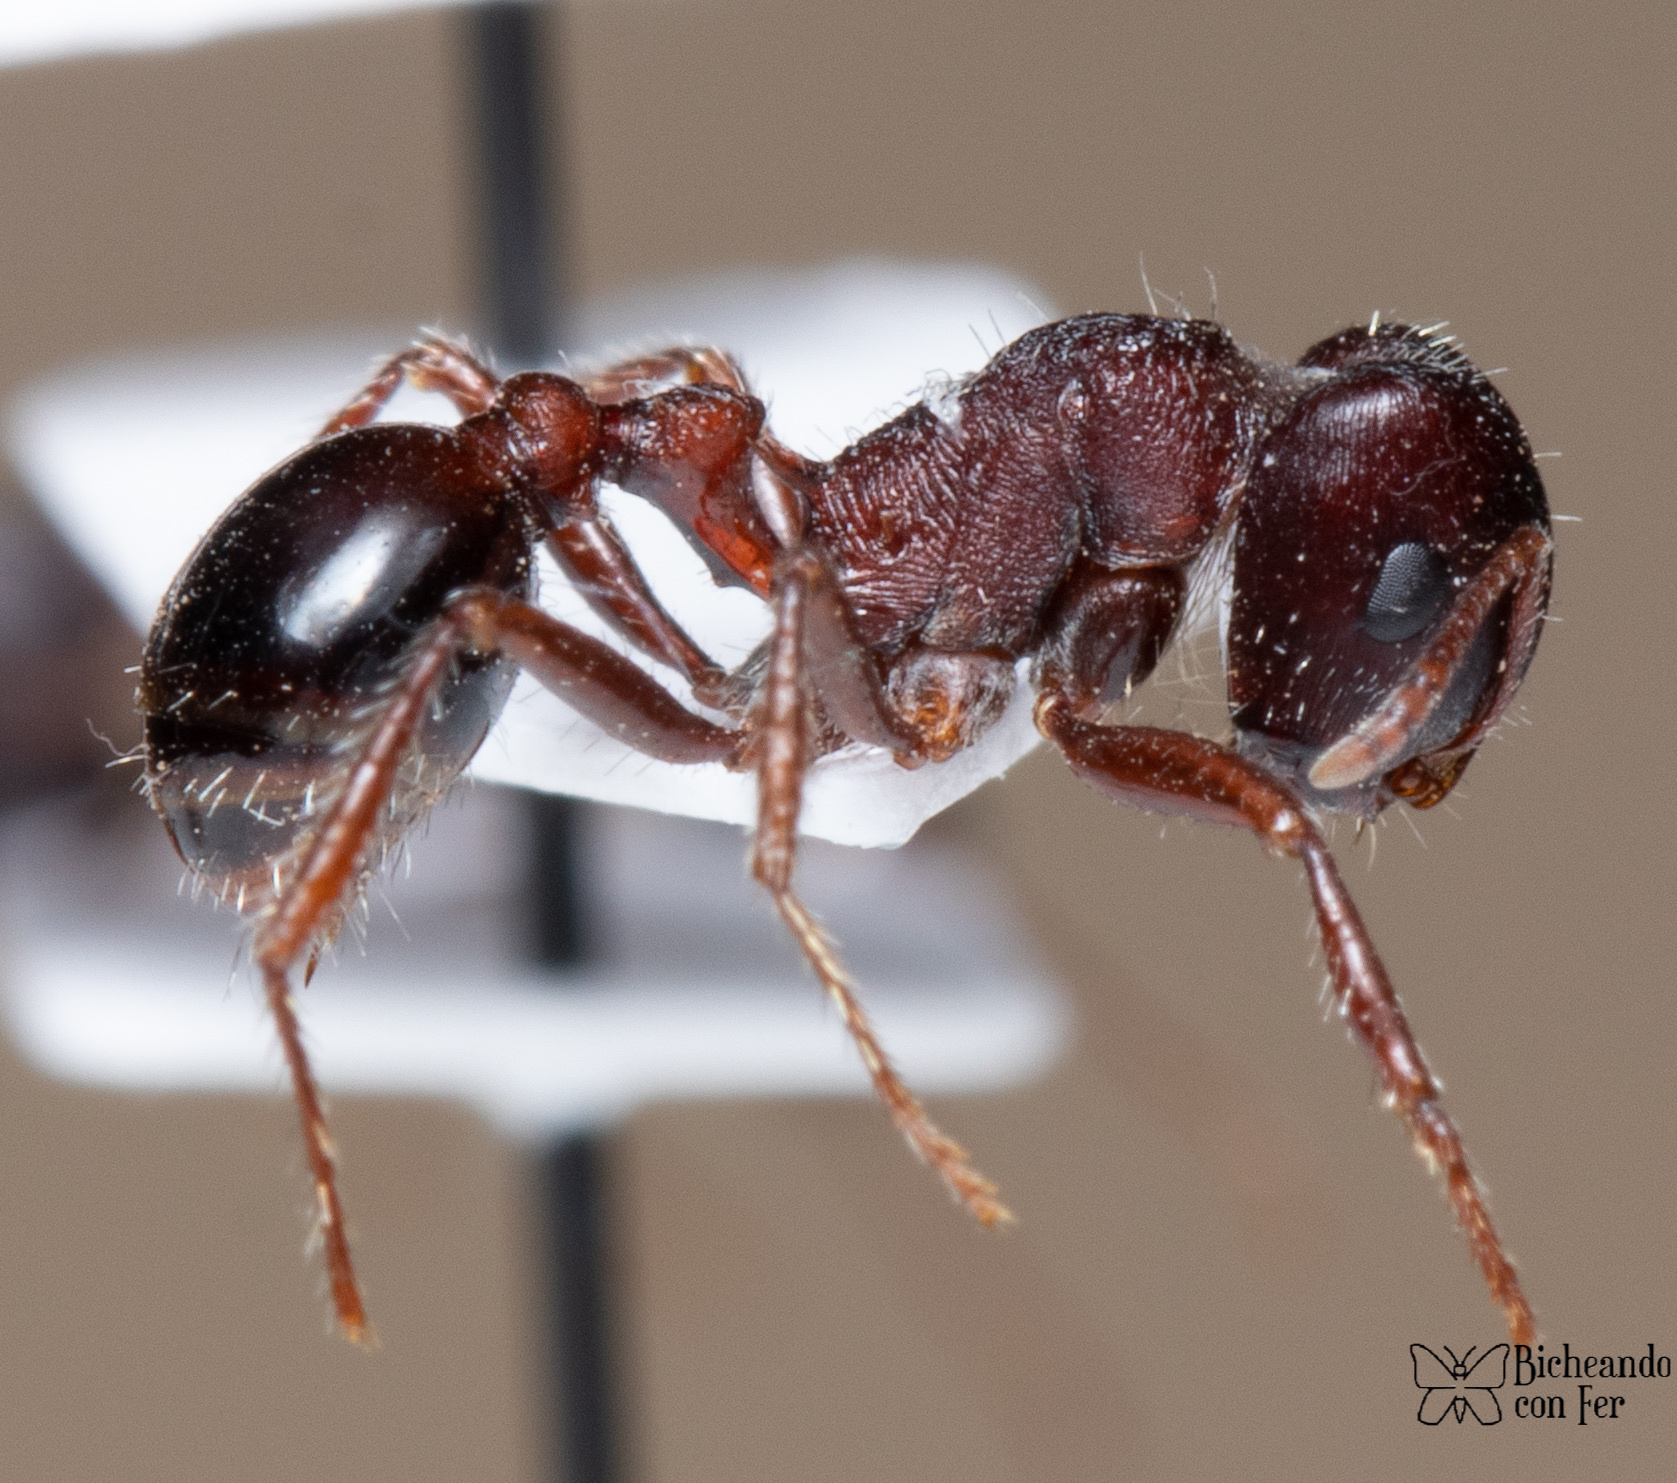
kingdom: Animalia
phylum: Arthropoda
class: Insecta
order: Hymenoptera
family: Formicidae
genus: Pogonomyrmex
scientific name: Pogonomyrmex rugosus
